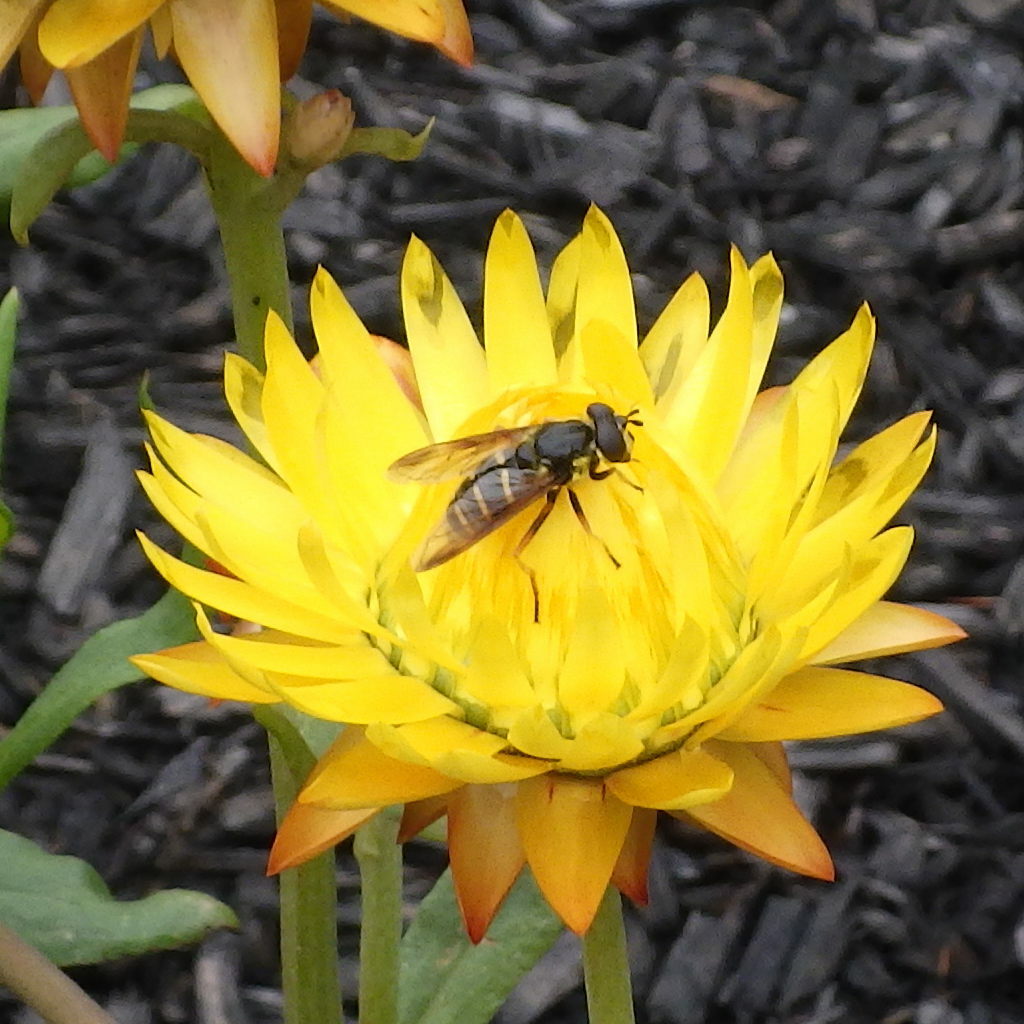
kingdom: Animalia
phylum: Arthropoda
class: Insecta
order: Diptera
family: Syrphidae
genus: Sericomyia
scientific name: Sericomyia chrysotoxoides
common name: Oblique-banded pond fly
